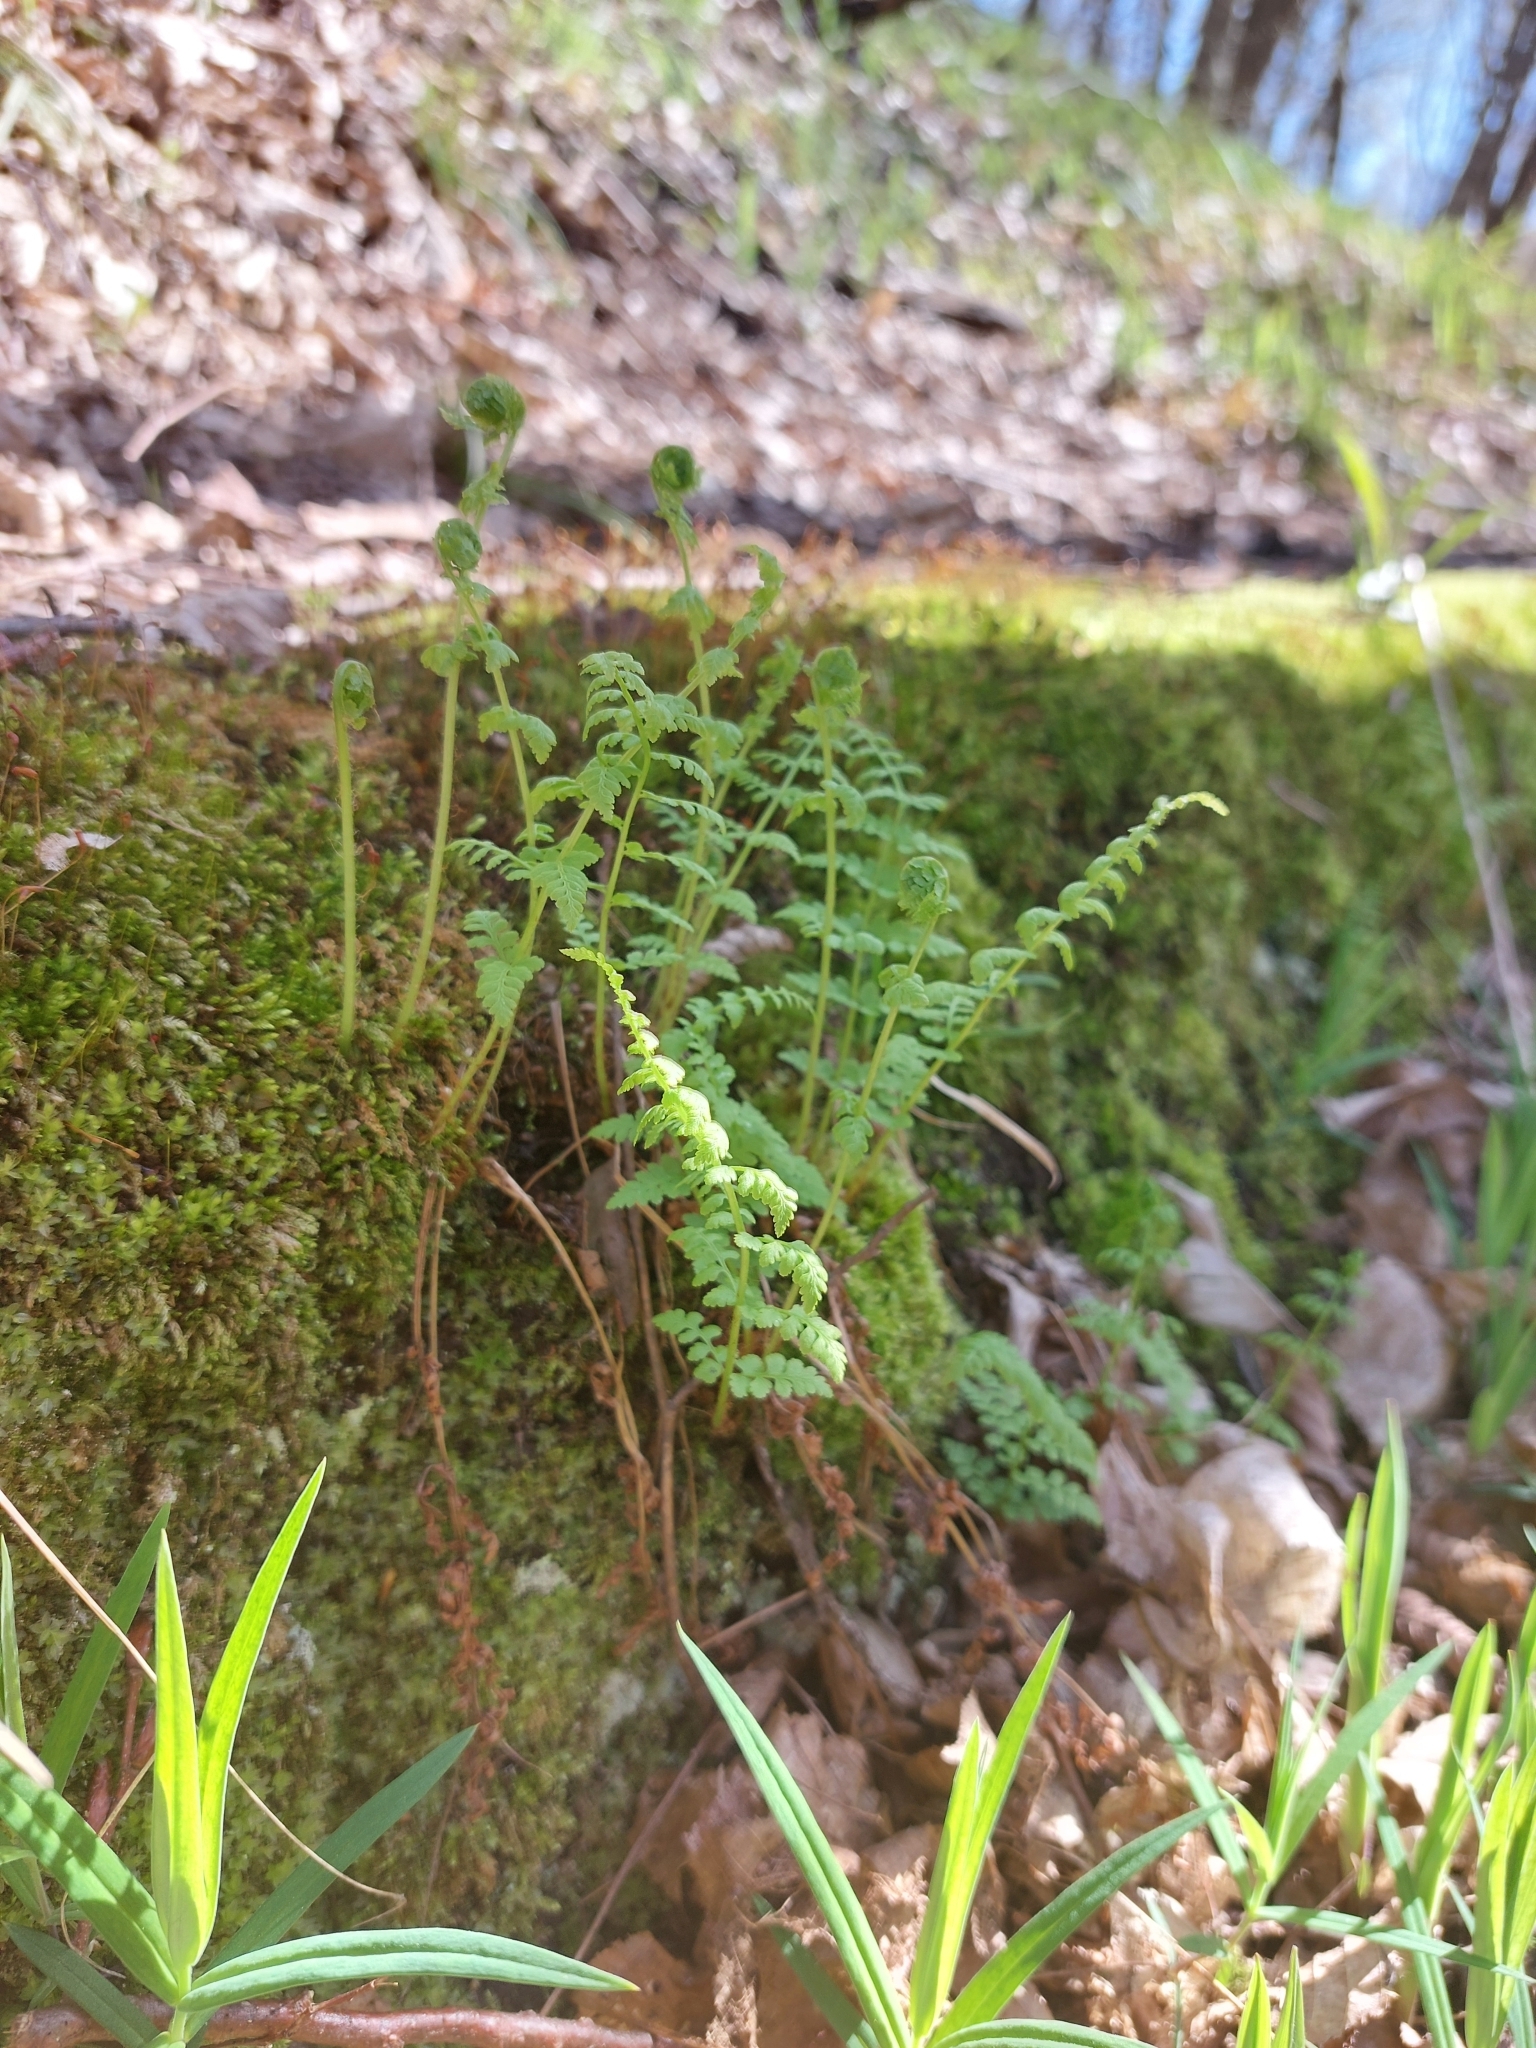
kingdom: Plantae
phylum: Tracheophyta
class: Polypodiopsida
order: Polypodiales
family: Cystopteridaceae
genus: Cystopteris
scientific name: Cystopteris fragilis
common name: Brittle bladder fern
